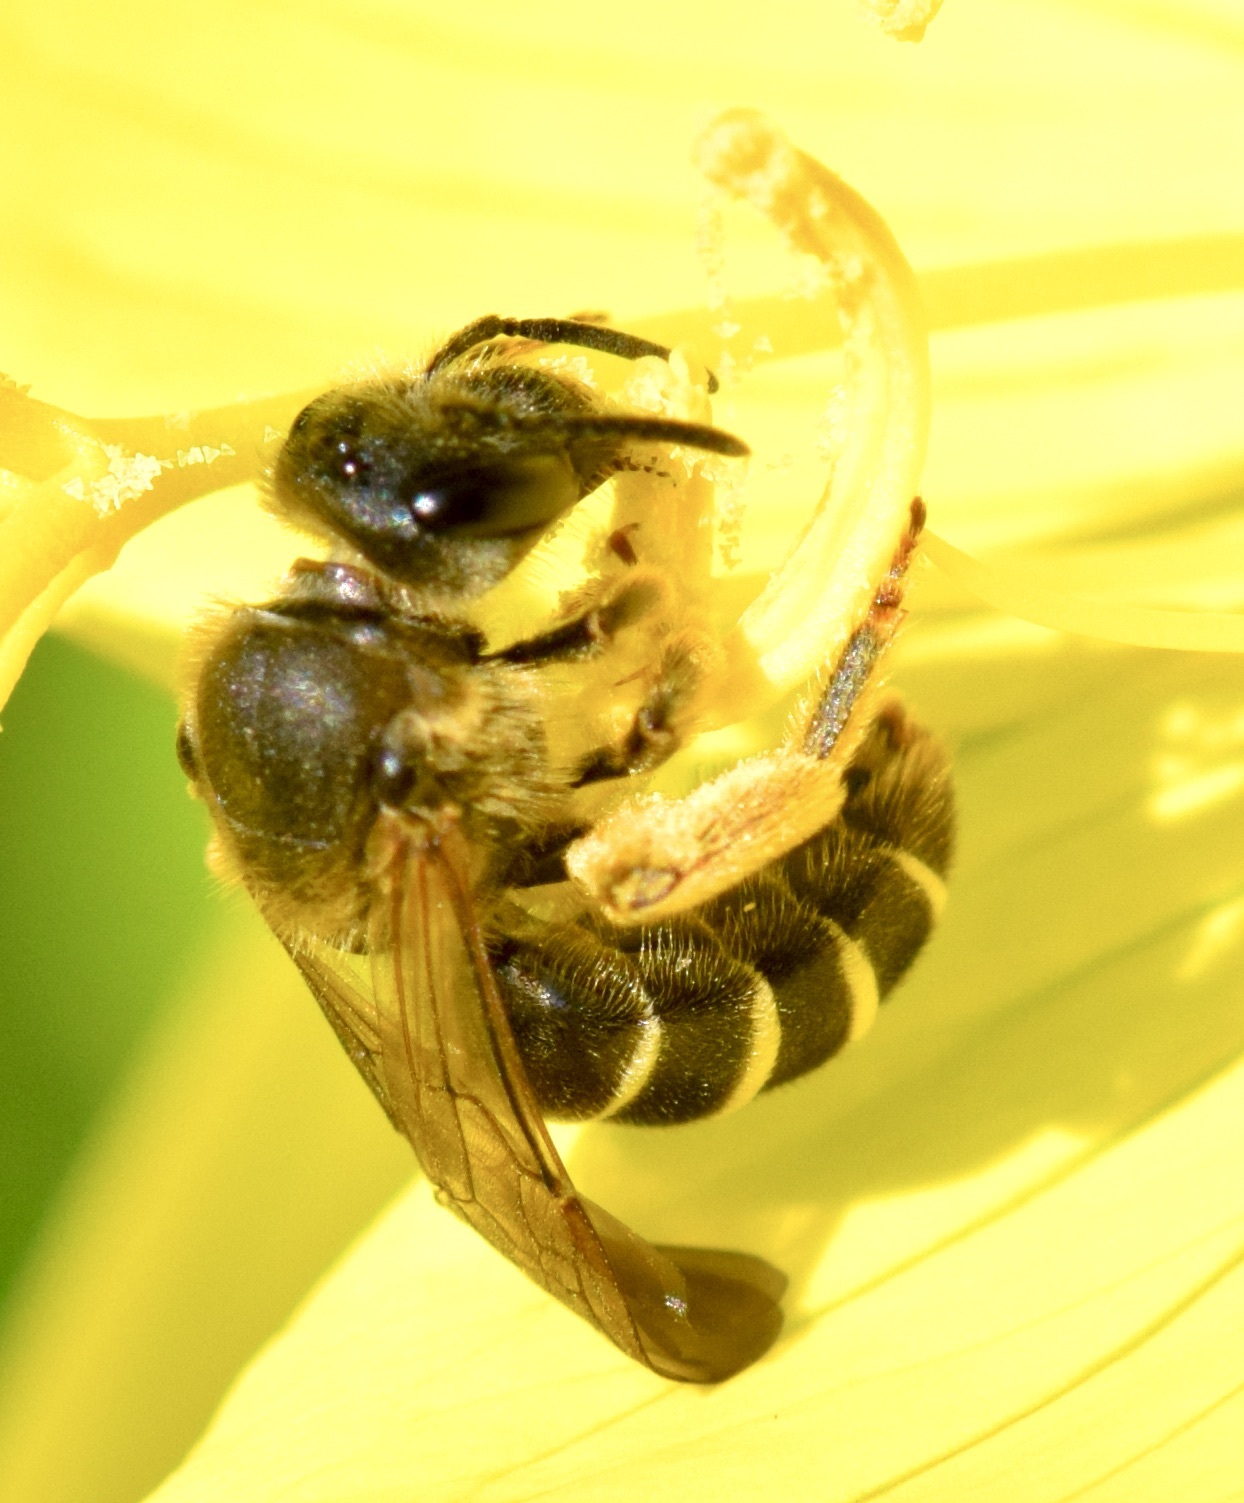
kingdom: Animalia
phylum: Arthropoda
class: Insecta
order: Hymenoptera
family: Halictidae
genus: Halictus
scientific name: Halictus rubicundus
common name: Orange-legged furrow bee
